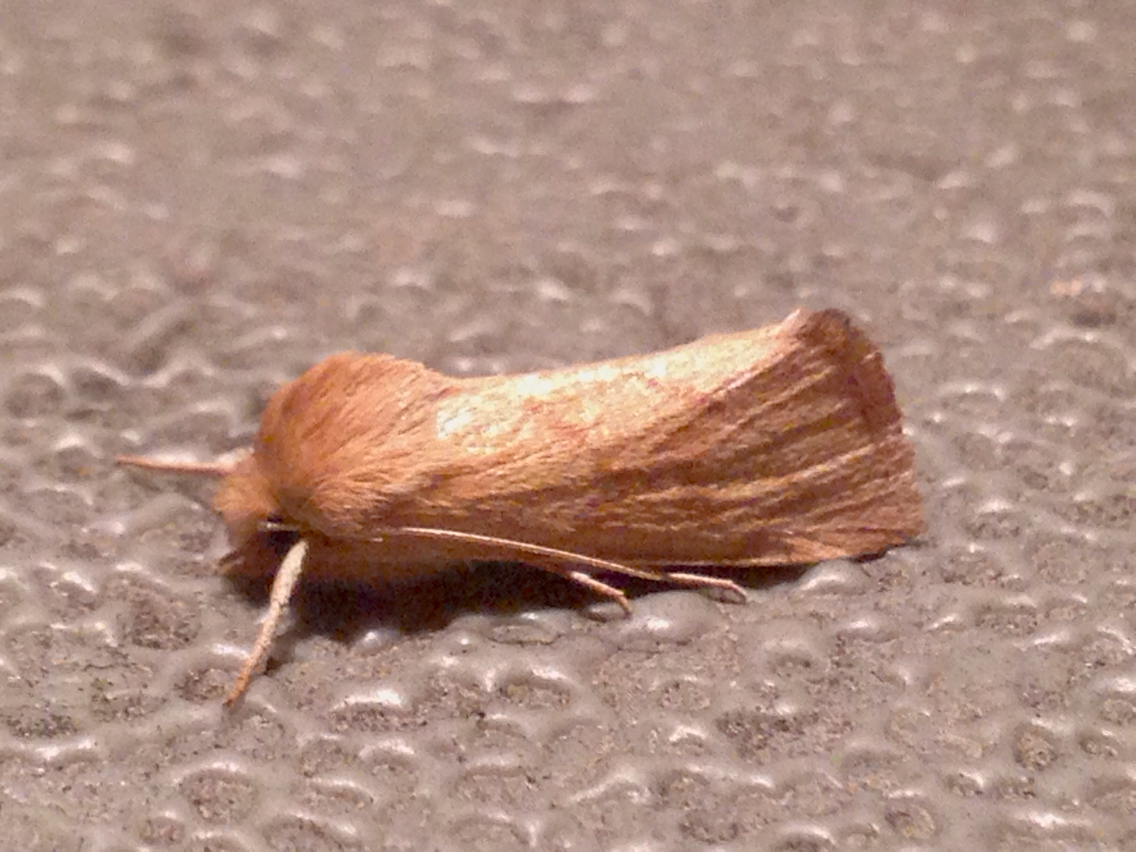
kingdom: Animalia
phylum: Arthropoda
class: Insecta
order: Lepidoptera
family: Noctuidae
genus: Zosteropoda
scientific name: Zosteropoda hirtipes
